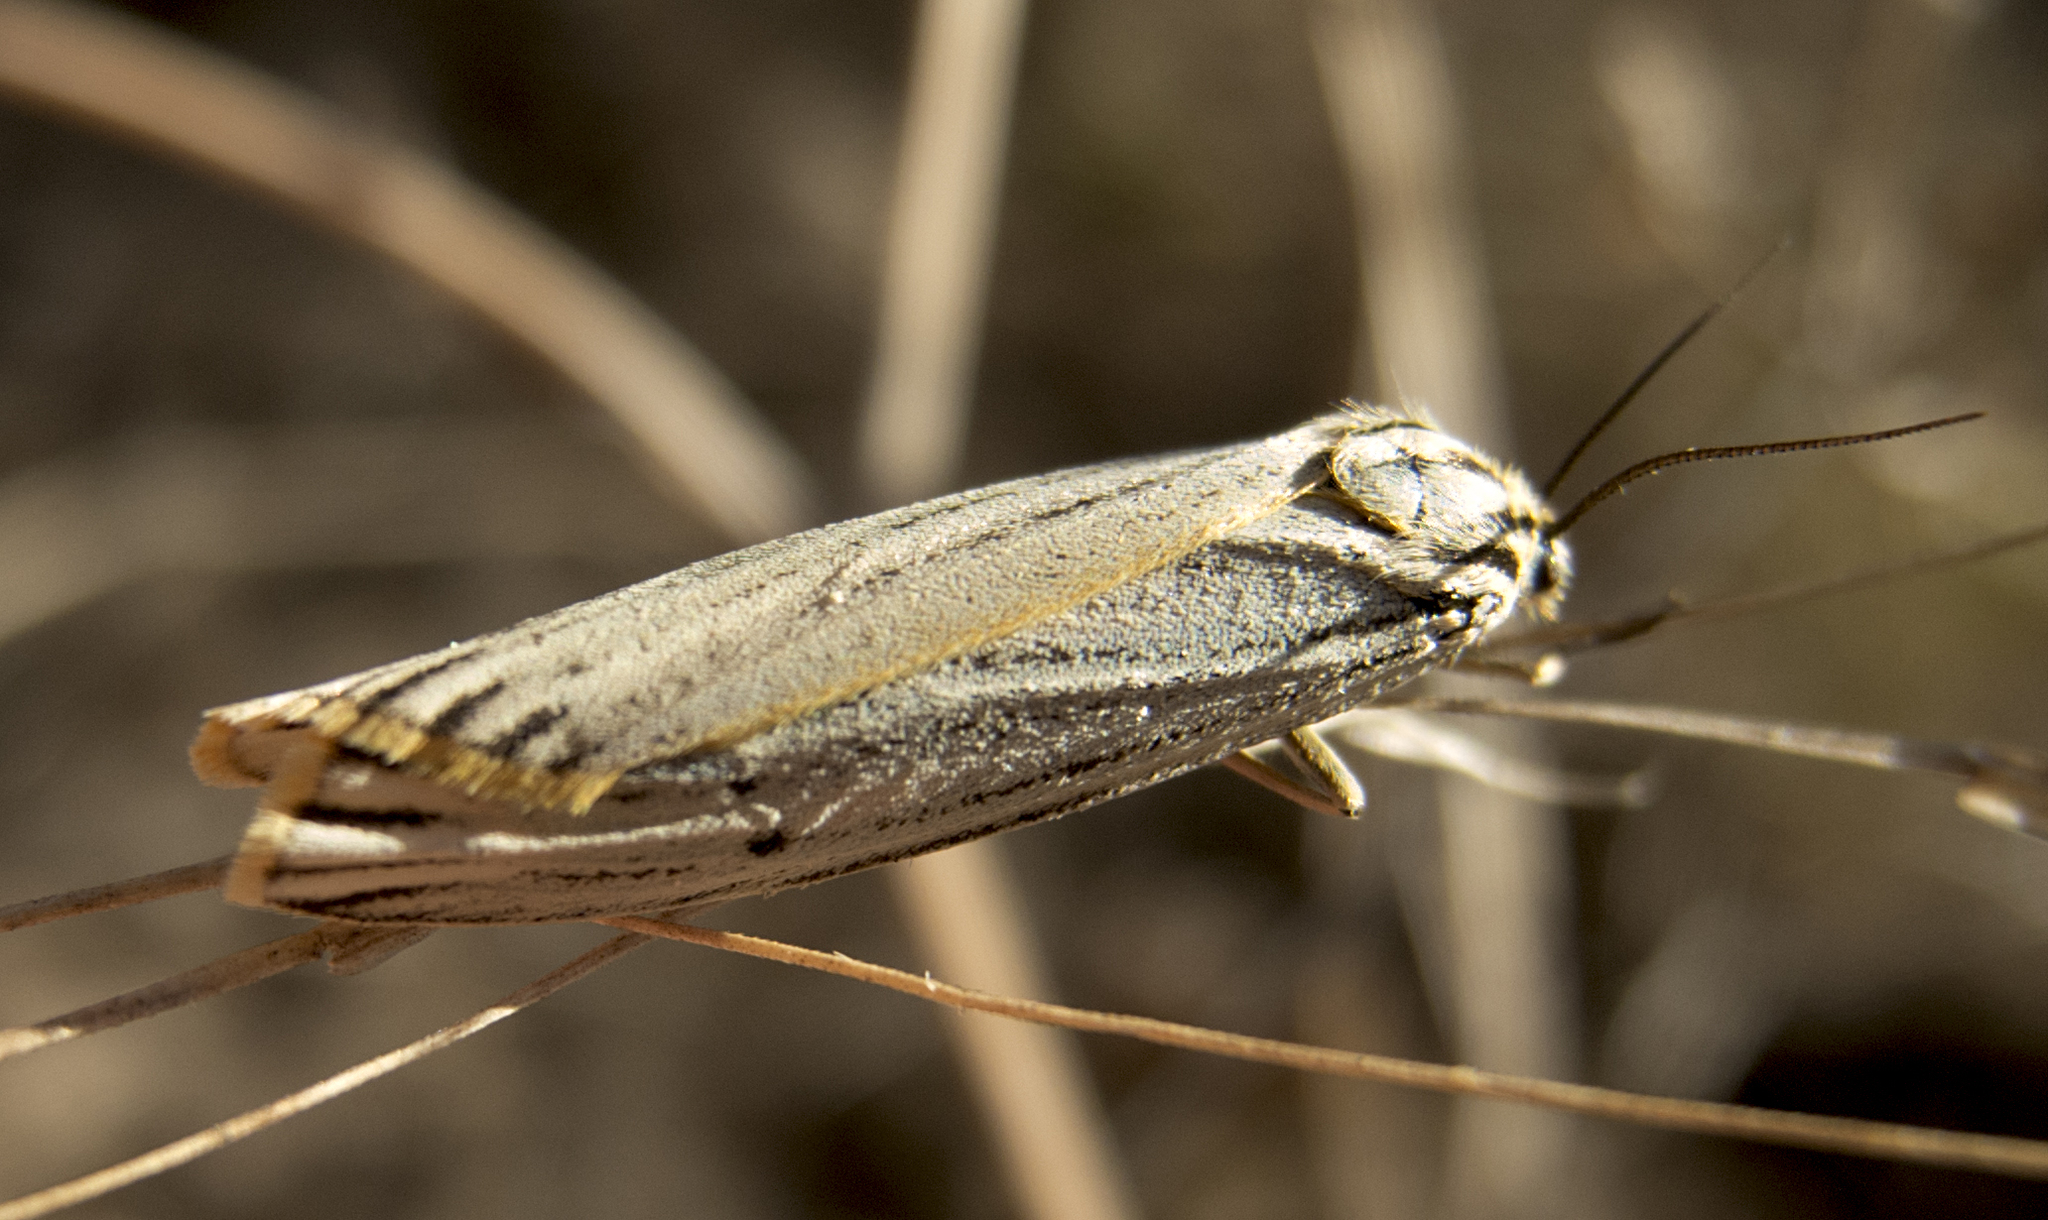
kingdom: Animalia
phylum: Arthropoda
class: Insecta
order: Lepidoptera
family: Erebidae
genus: Coscinia
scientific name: Coscinia Spiris striata
